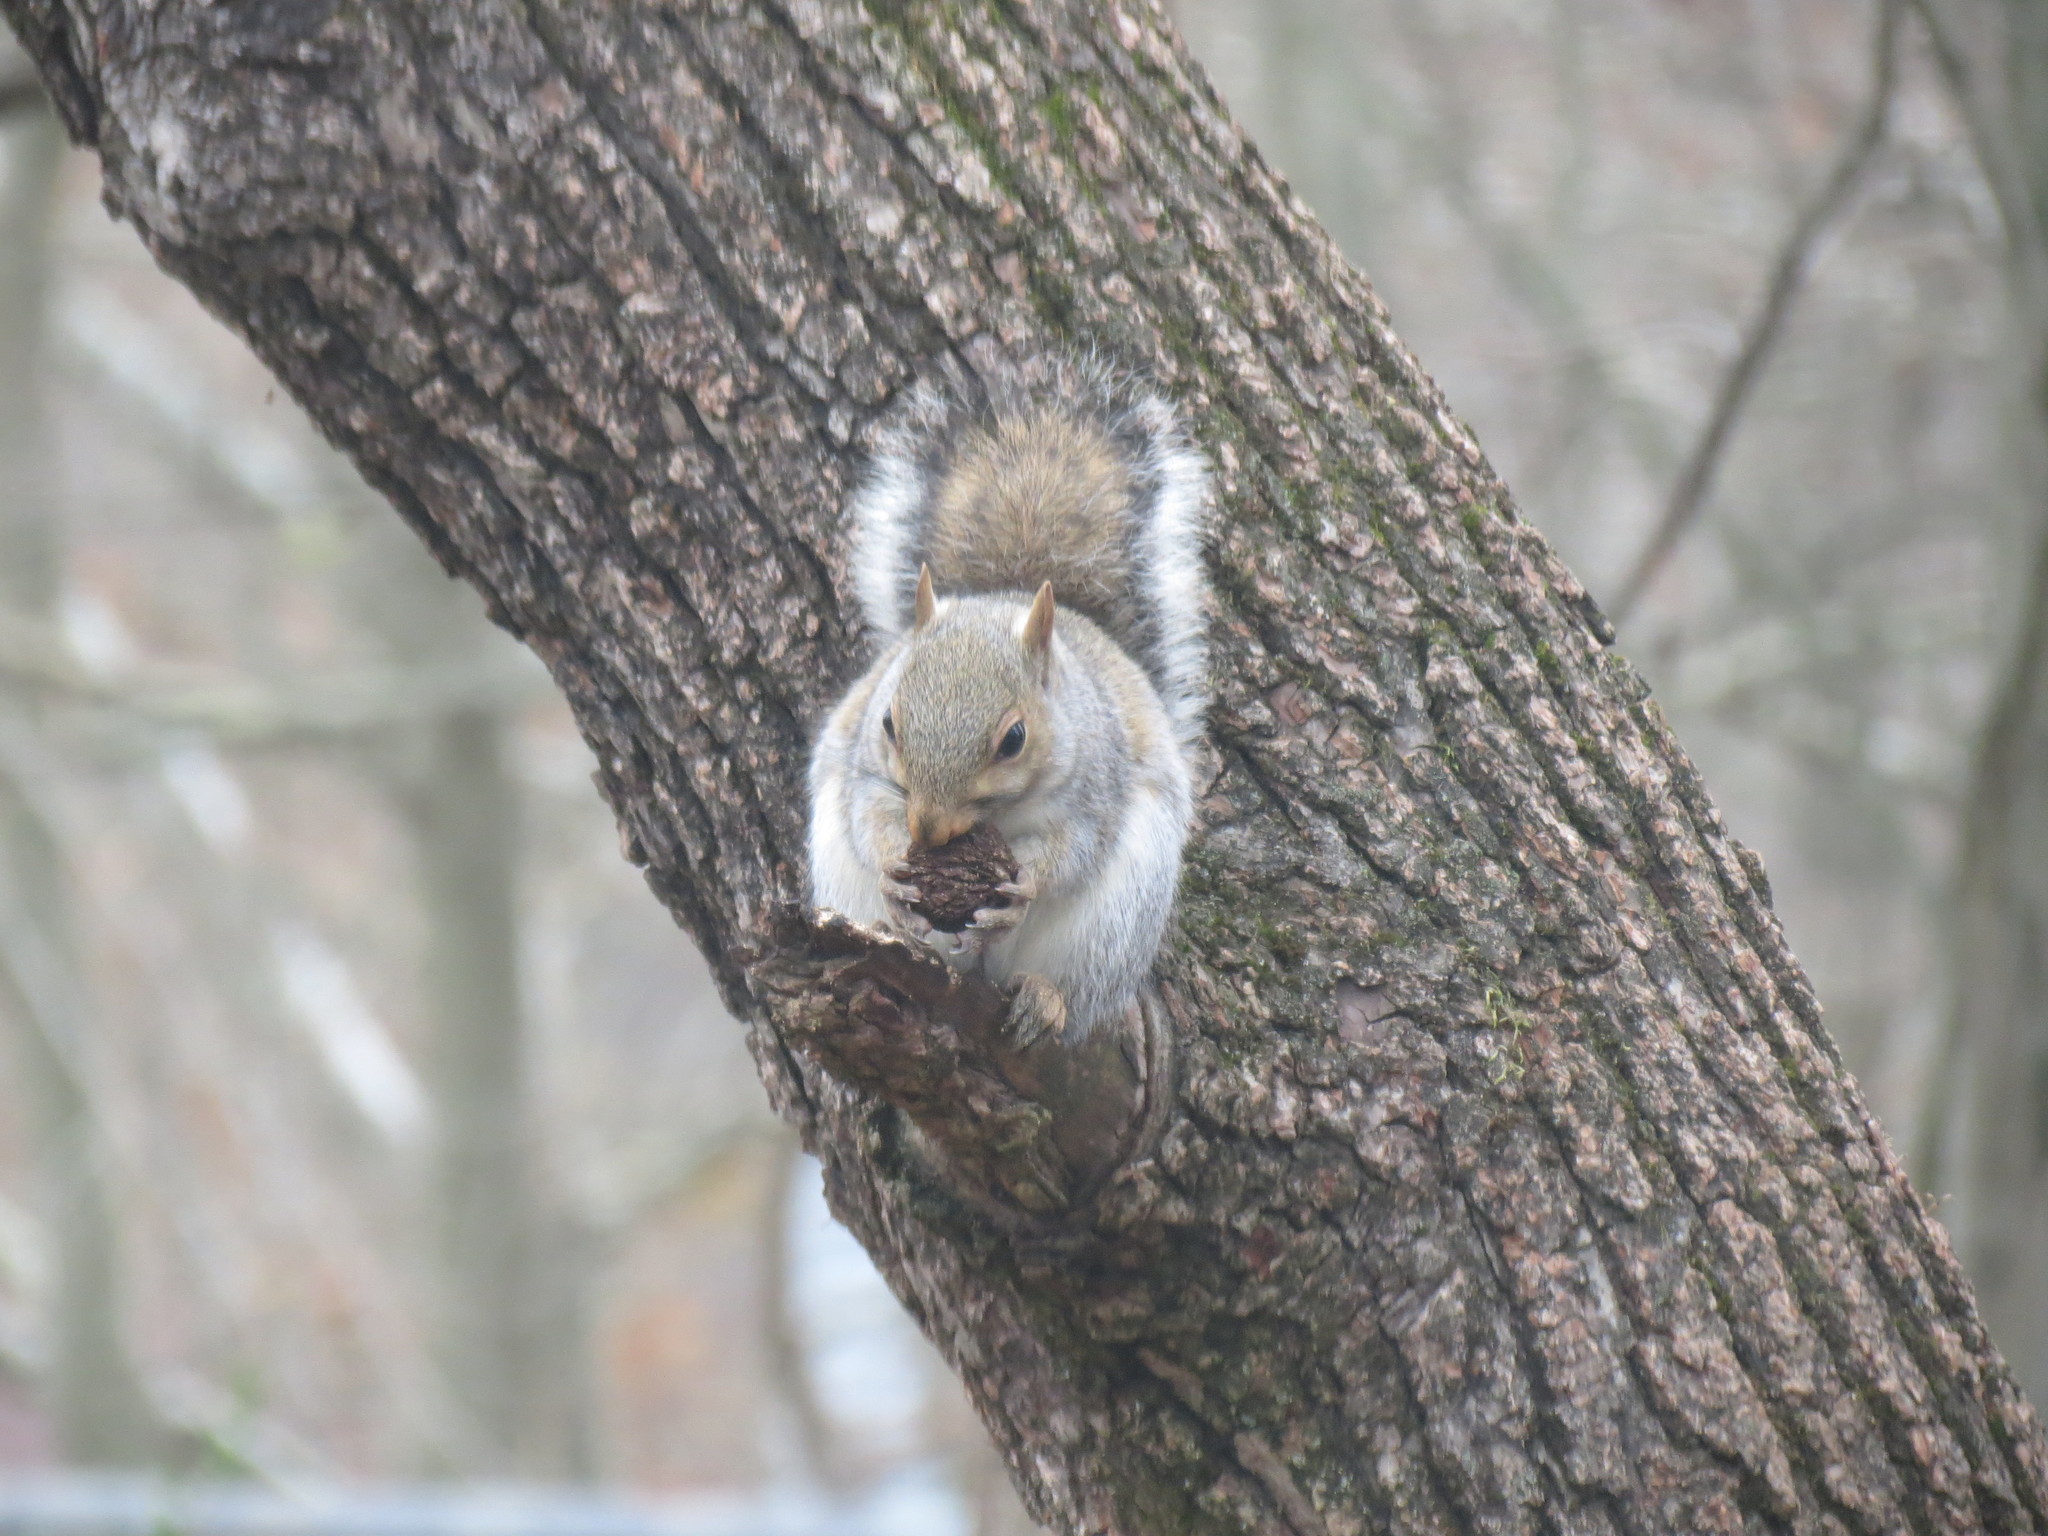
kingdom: Animalia
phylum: Chordata
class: Mammalia
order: Rodentia
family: Sciuridae
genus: Sciurus
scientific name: Sciurus carolinensis
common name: Eastern gray squirrel
